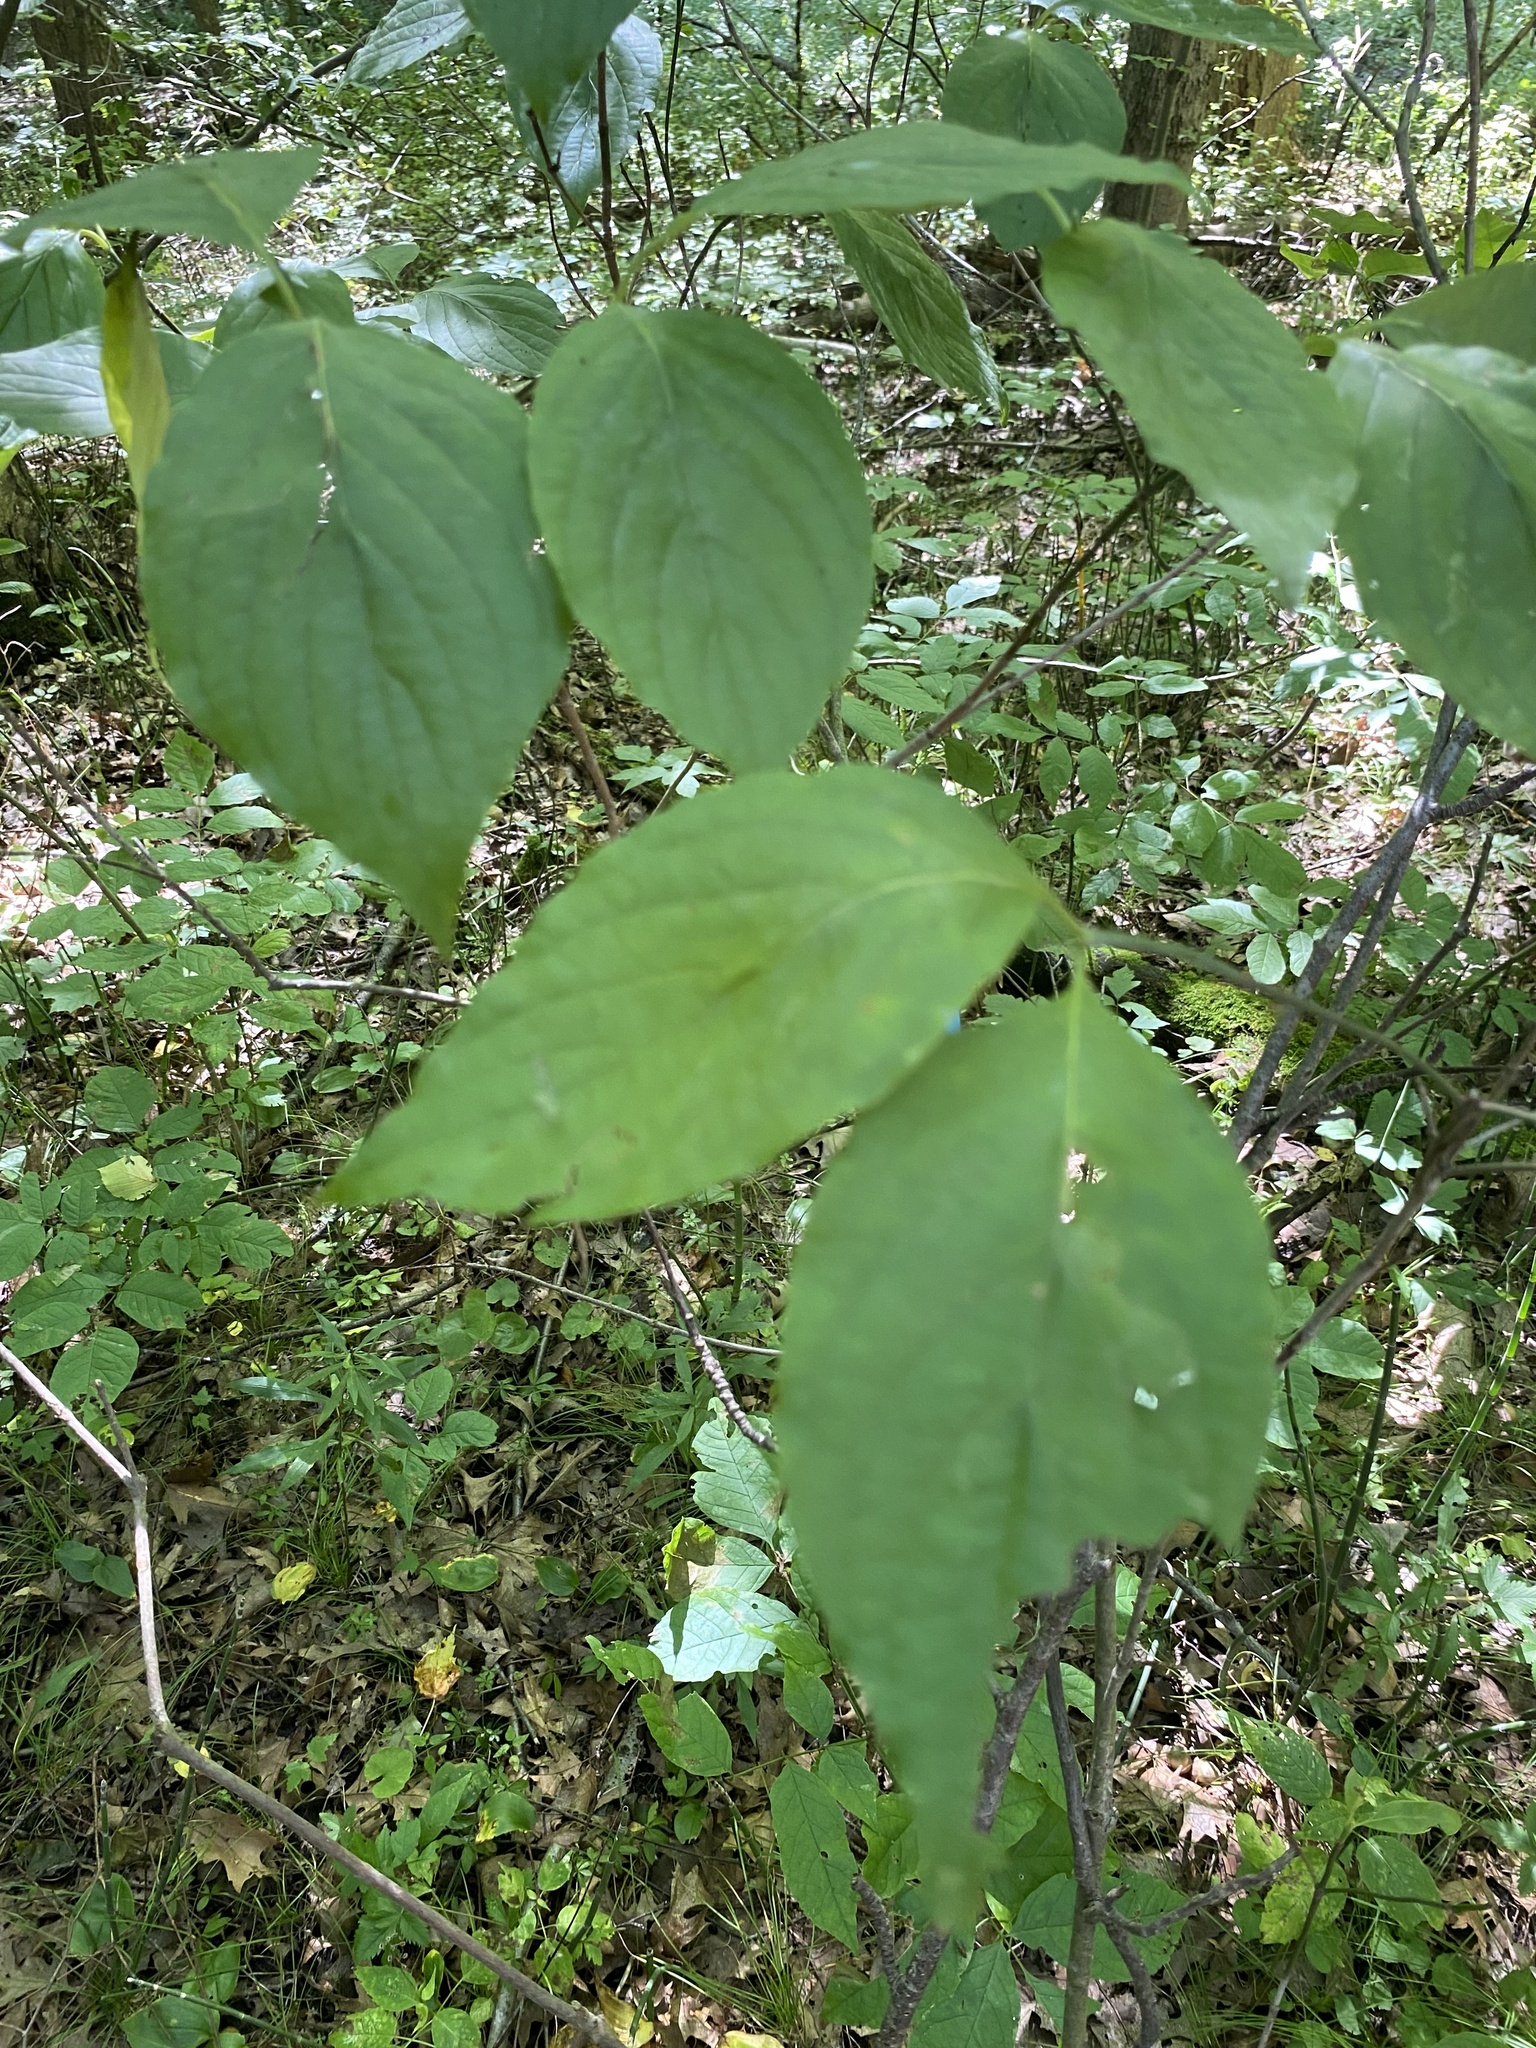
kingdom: Plantae
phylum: Tracheophyta
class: Magnoliopsida
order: Cornales
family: Cornaceae
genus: Cornus
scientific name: Cornus florida
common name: Flowering dogwood
